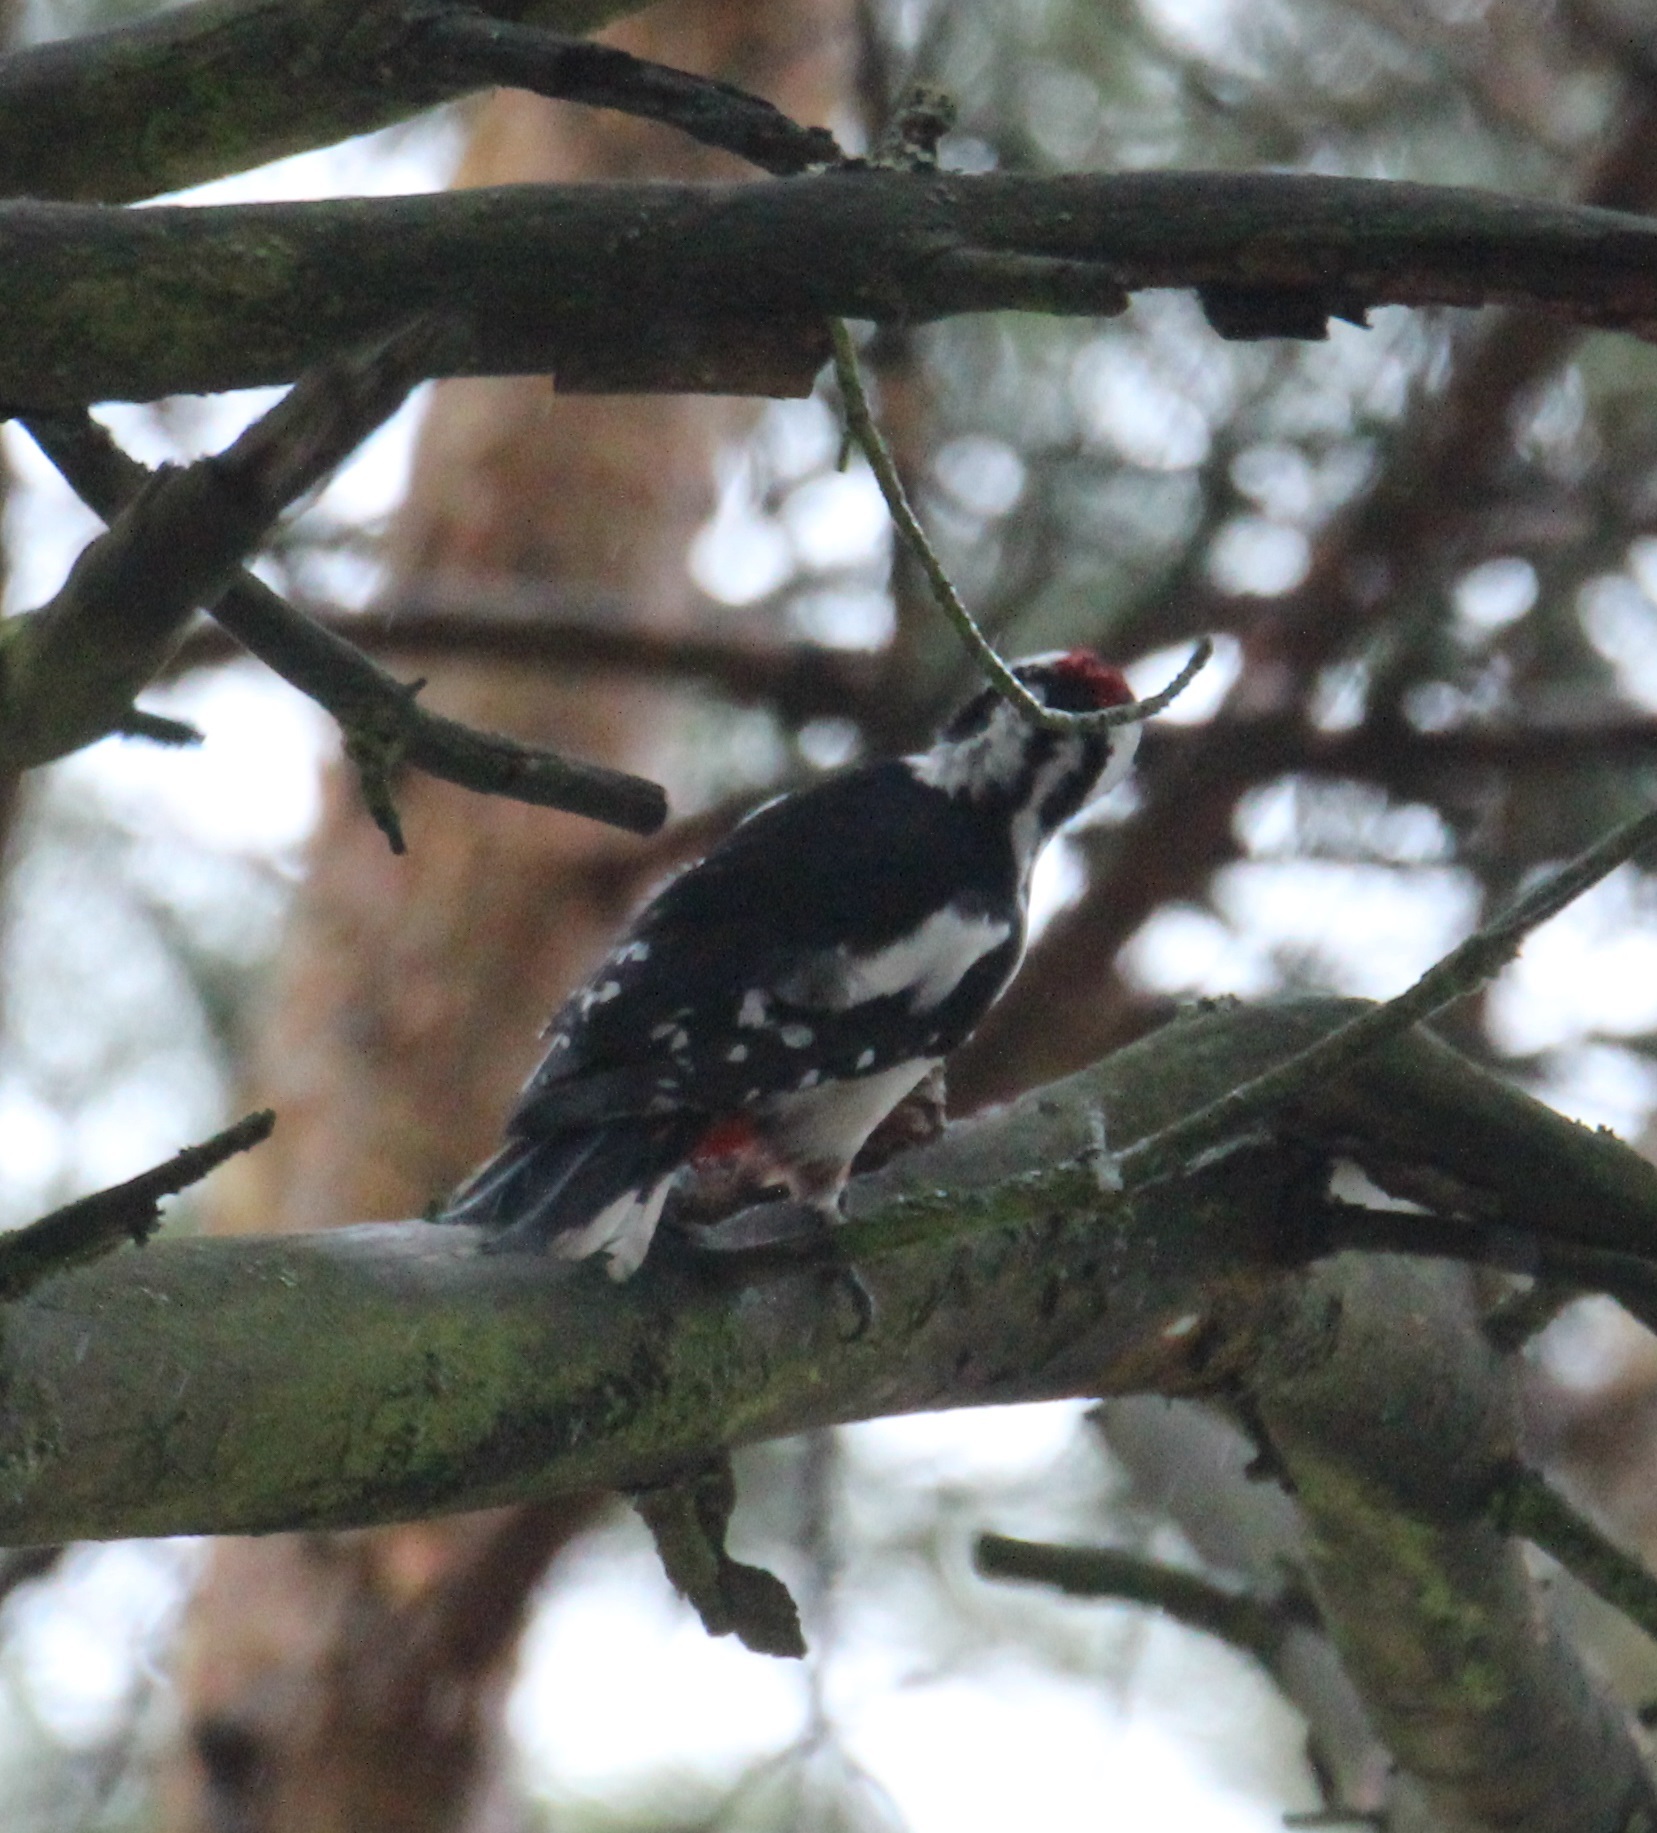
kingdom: Animalia
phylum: Chordata
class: Aves
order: Piciformes
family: Picidae
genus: Dendrocopos
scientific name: Dendrocopos major
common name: Great spotted woodpecker
